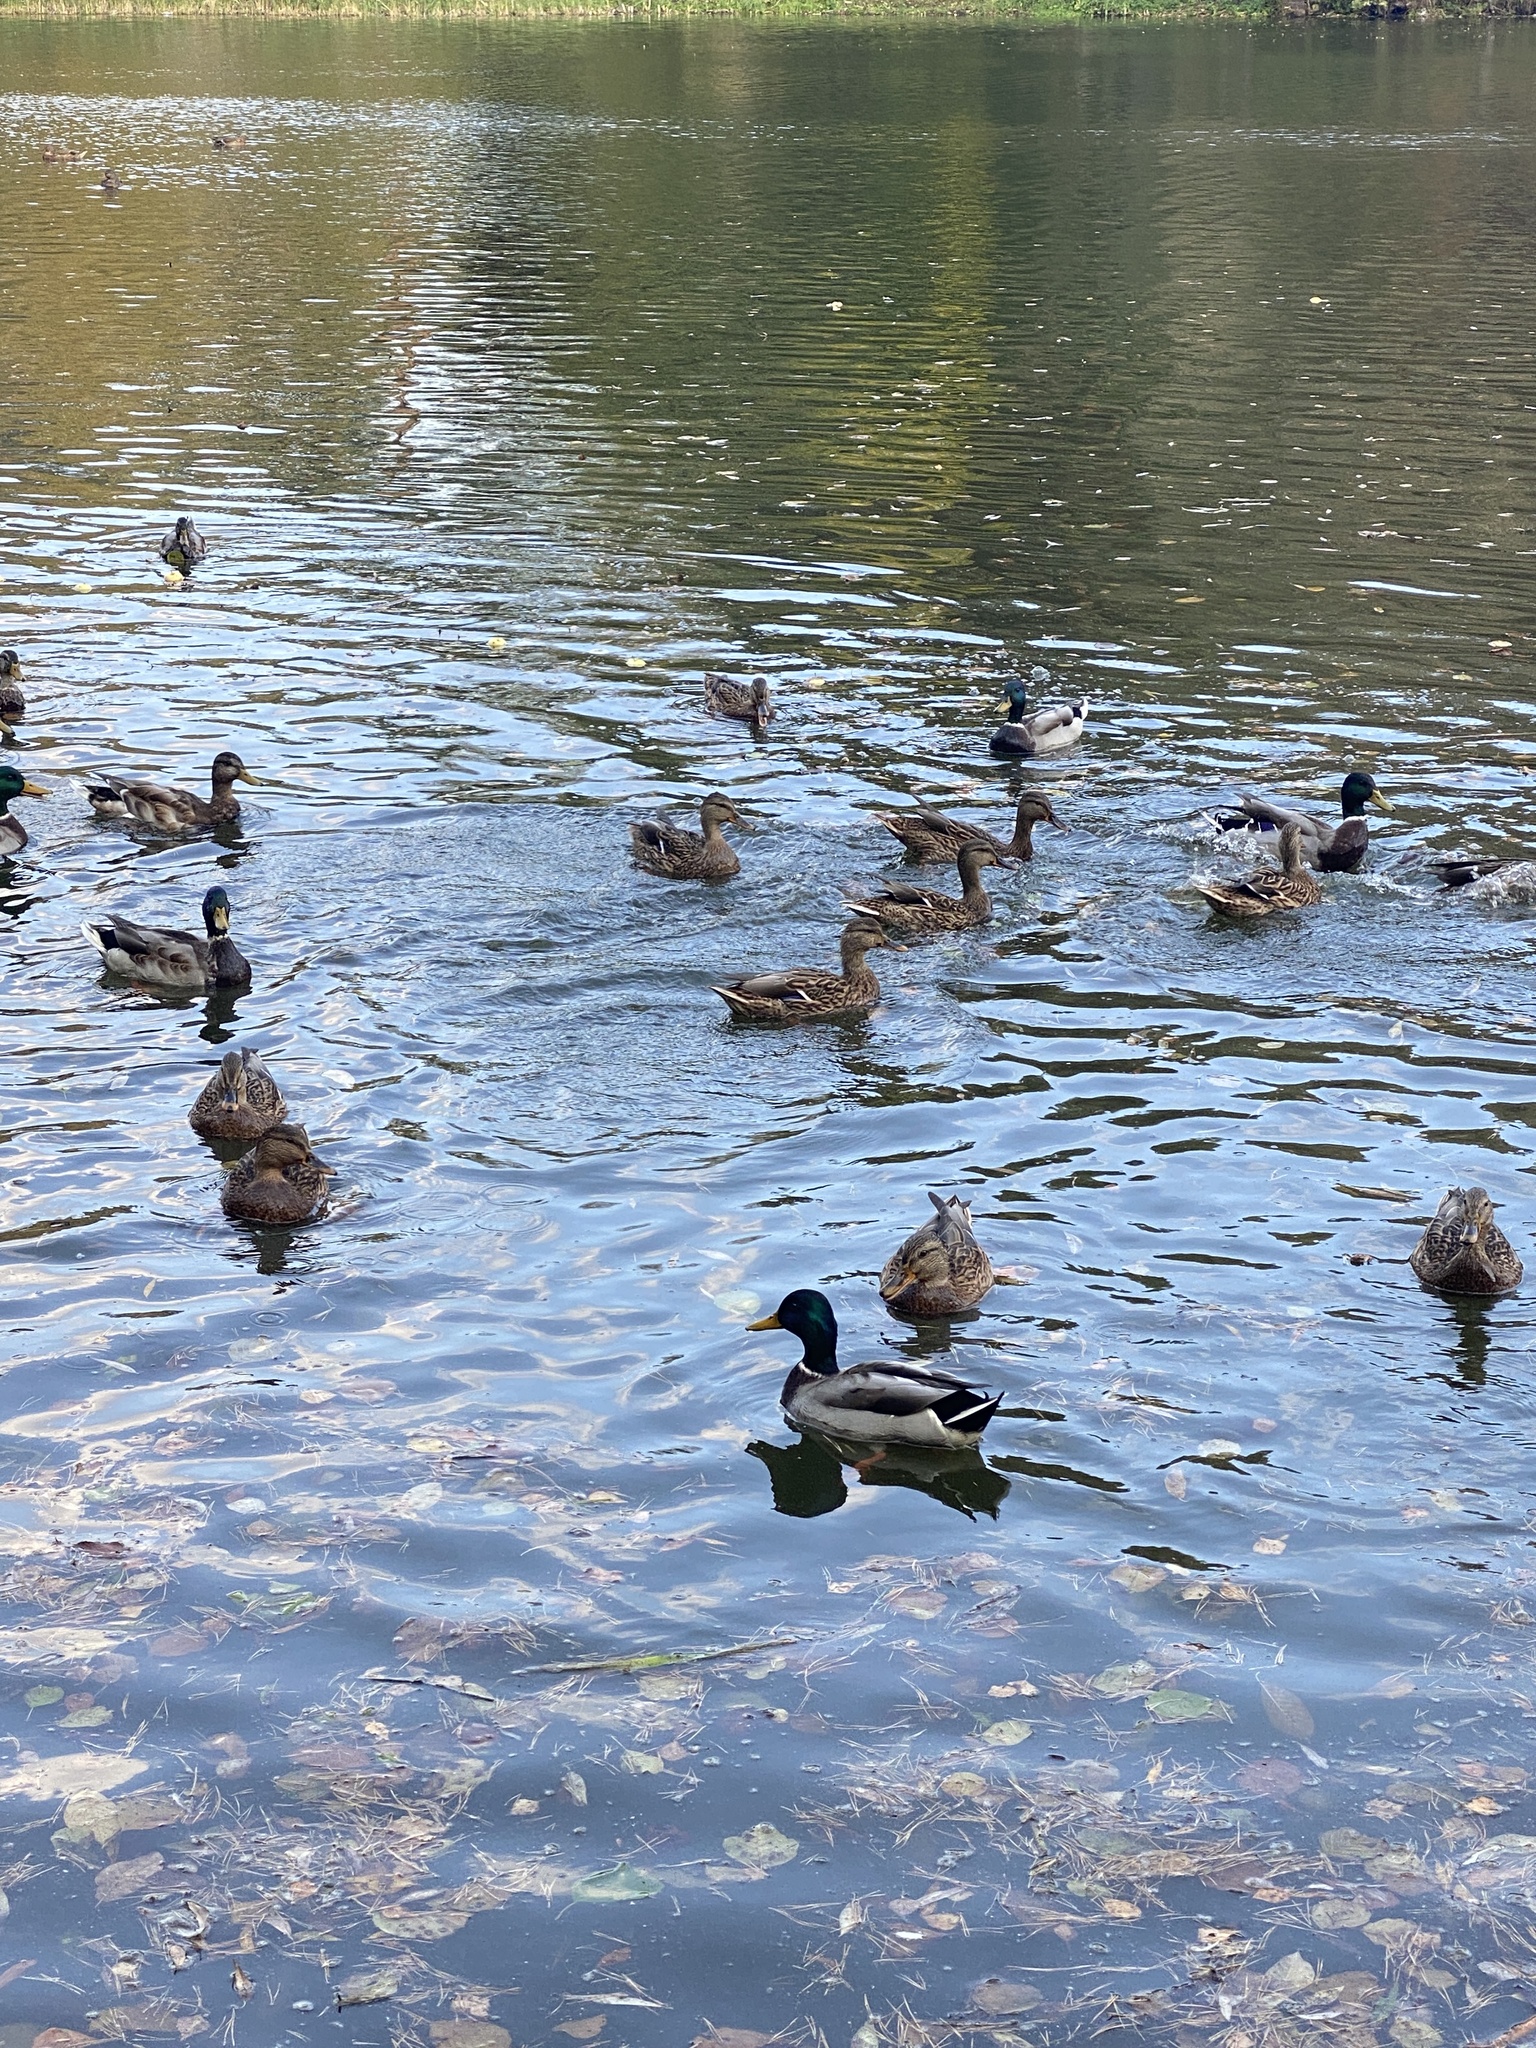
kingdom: Animalia
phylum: Chordata
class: Aves
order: Anseriformes
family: Anatidae
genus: Anas
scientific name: Anas platyrhynchos
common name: Mallard
